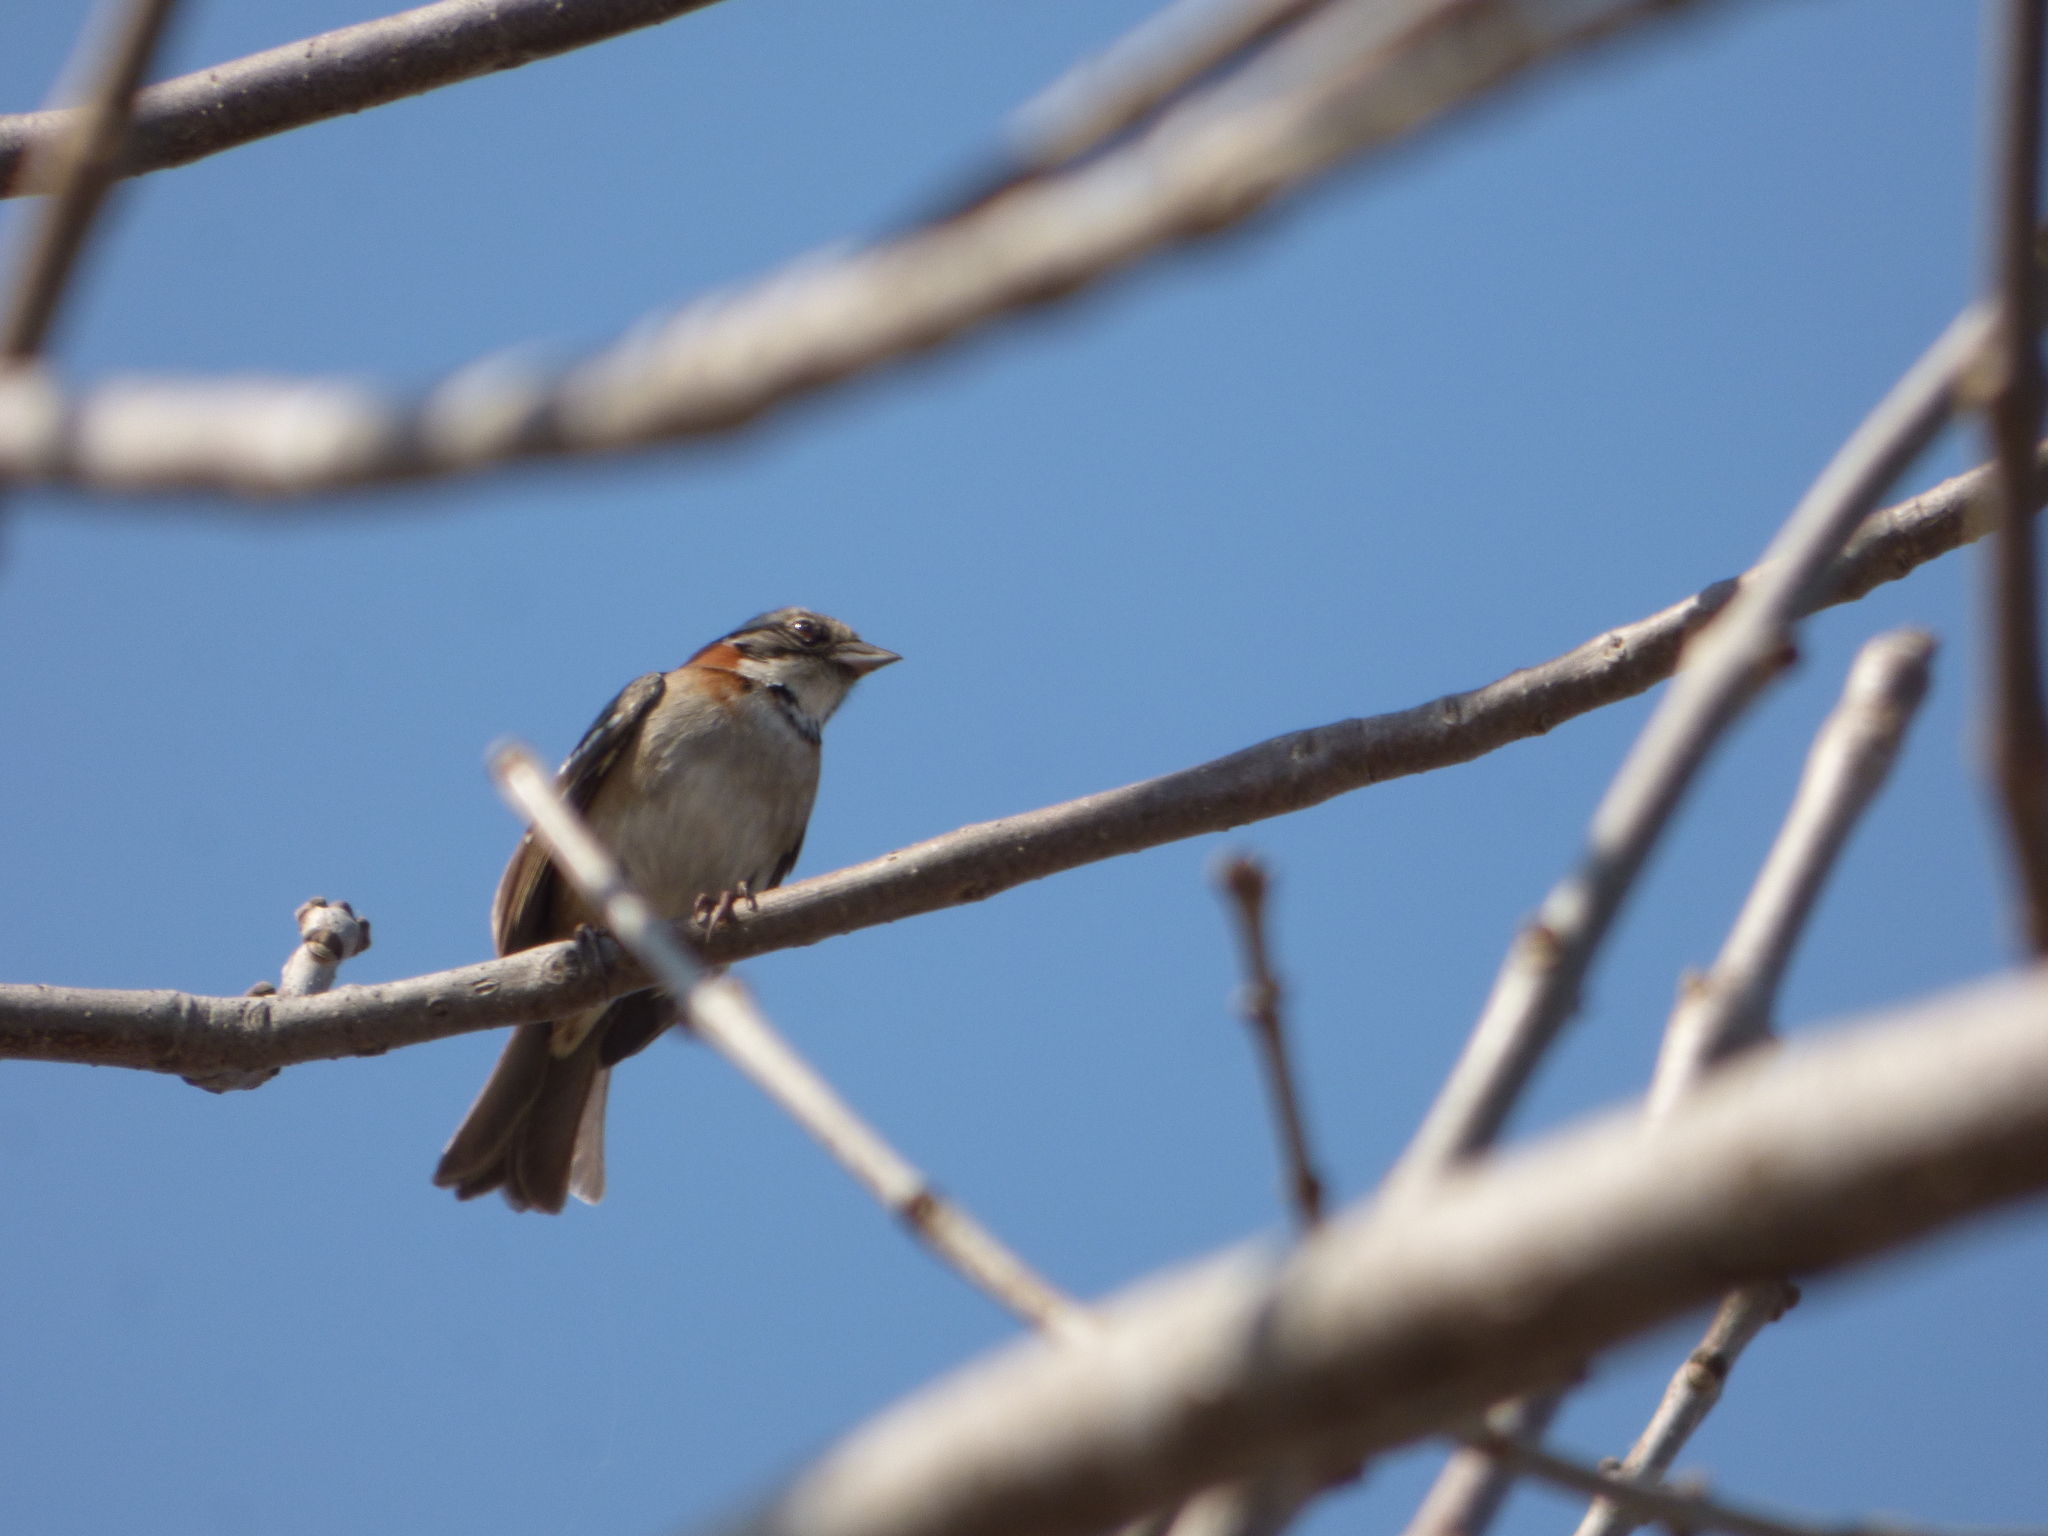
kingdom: Animalia
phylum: Chordata
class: Aves
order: Passeriformes
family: Passerellidae
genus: Zonotrichia
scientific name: Zonotrichia capensis
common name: Rufous-collared sparrow
